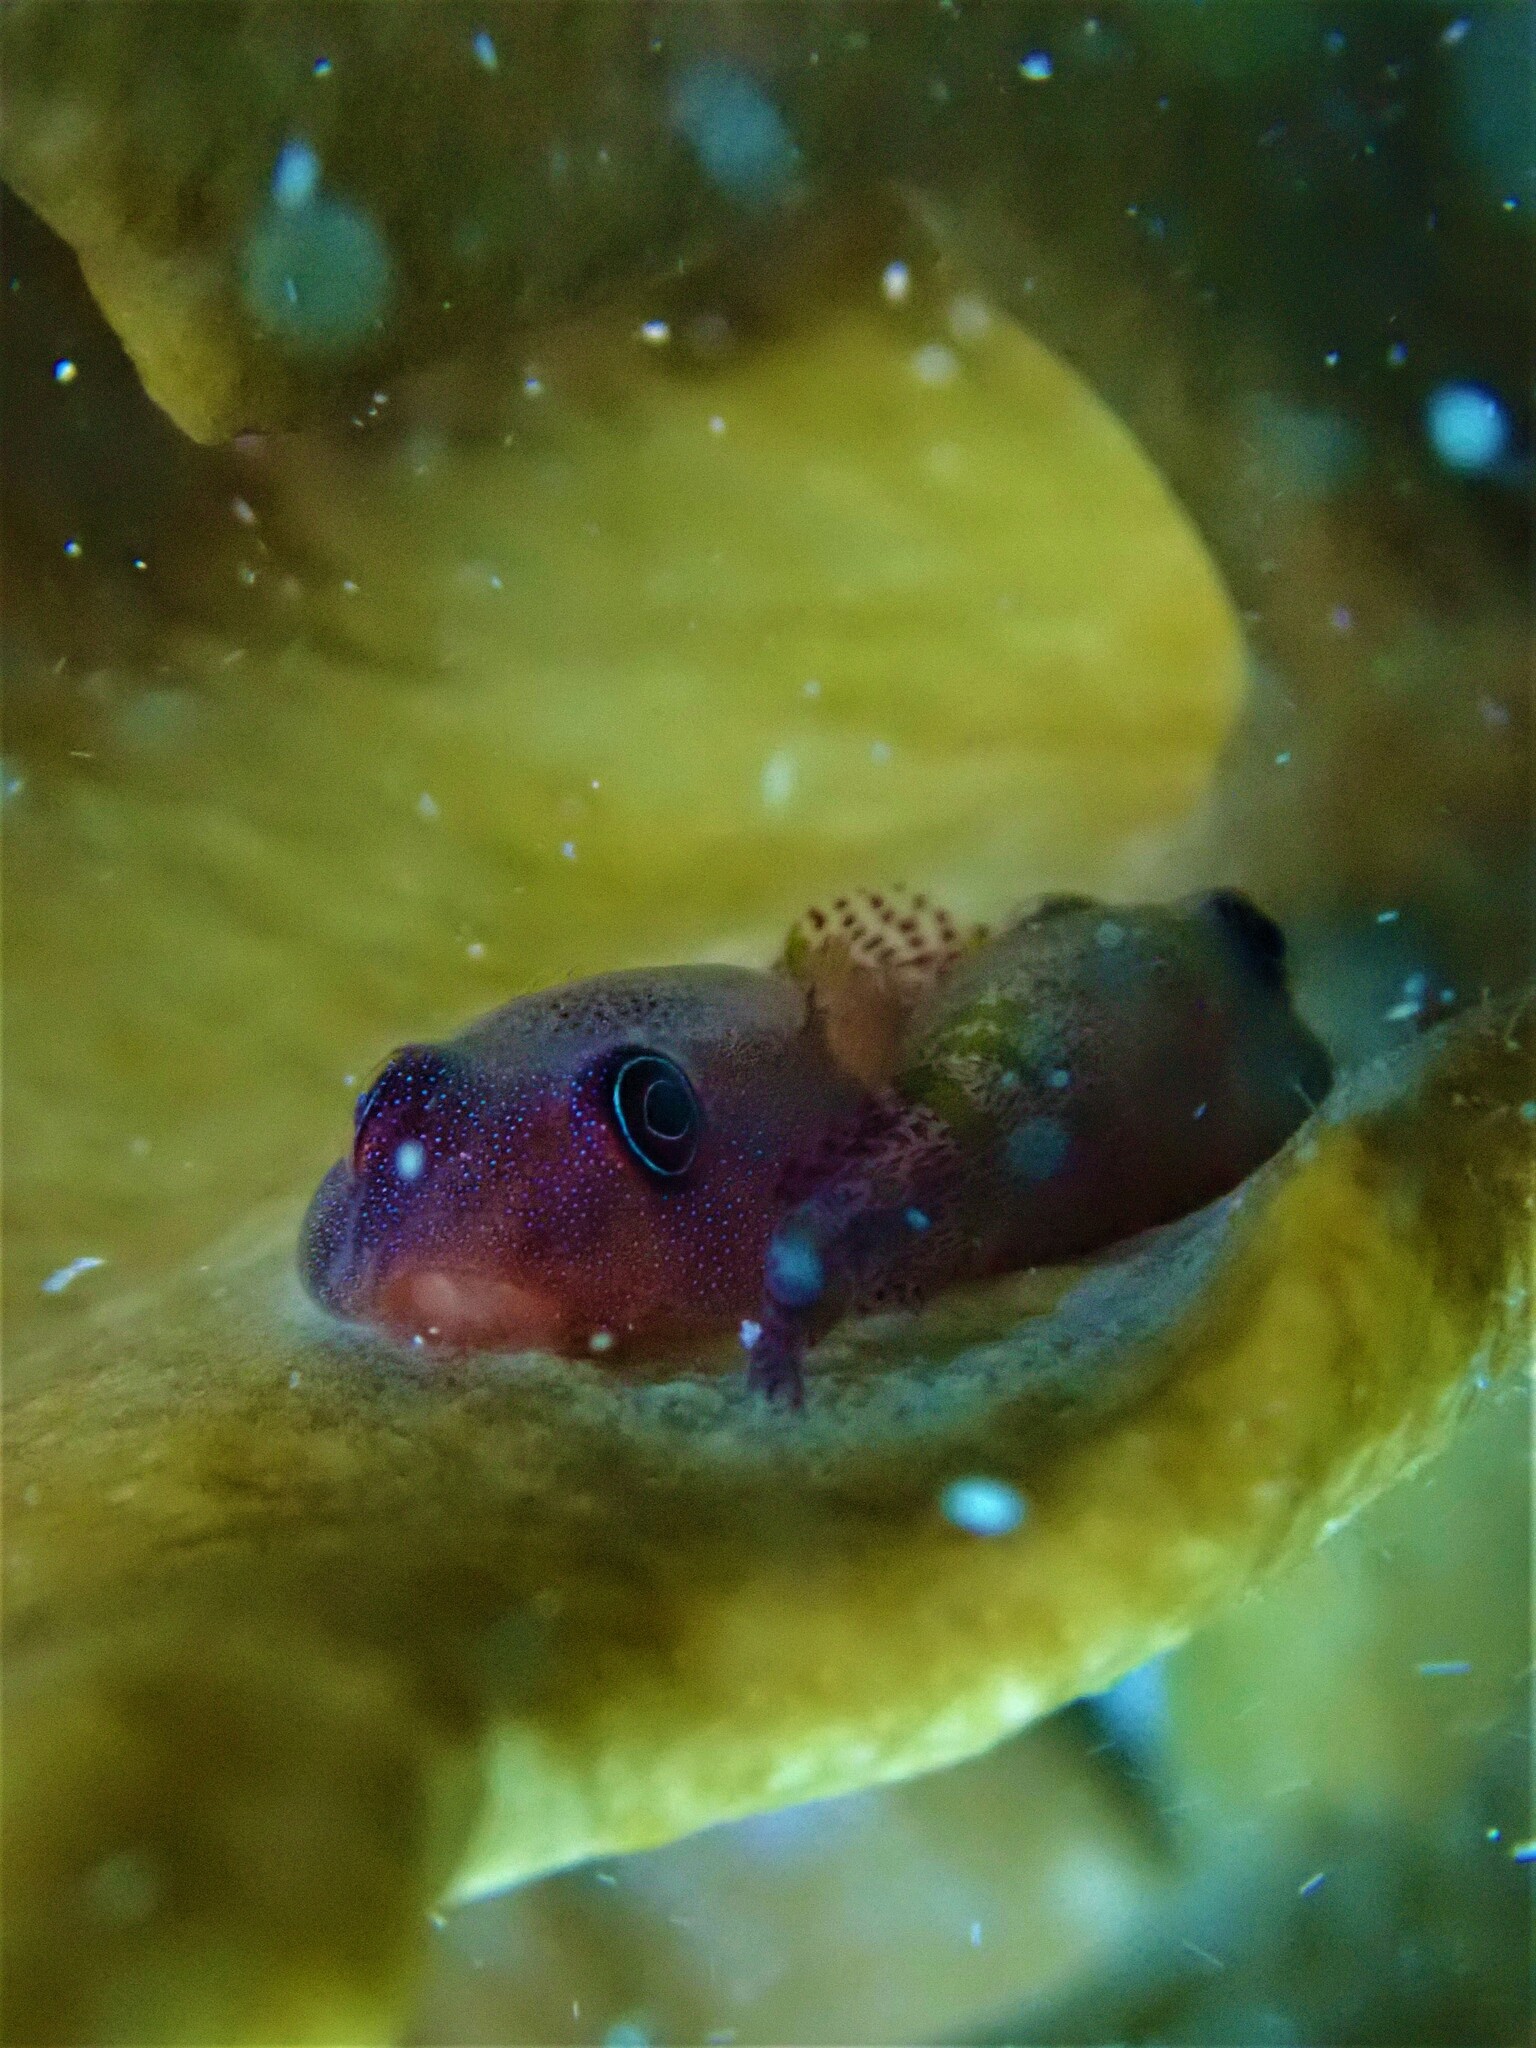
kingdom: Animalia
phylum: Chordata
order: Gobiesociformes
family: Gobiesocidae
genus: Acyrtus
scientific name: Acyrtus artius
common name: Papillate clingfish
